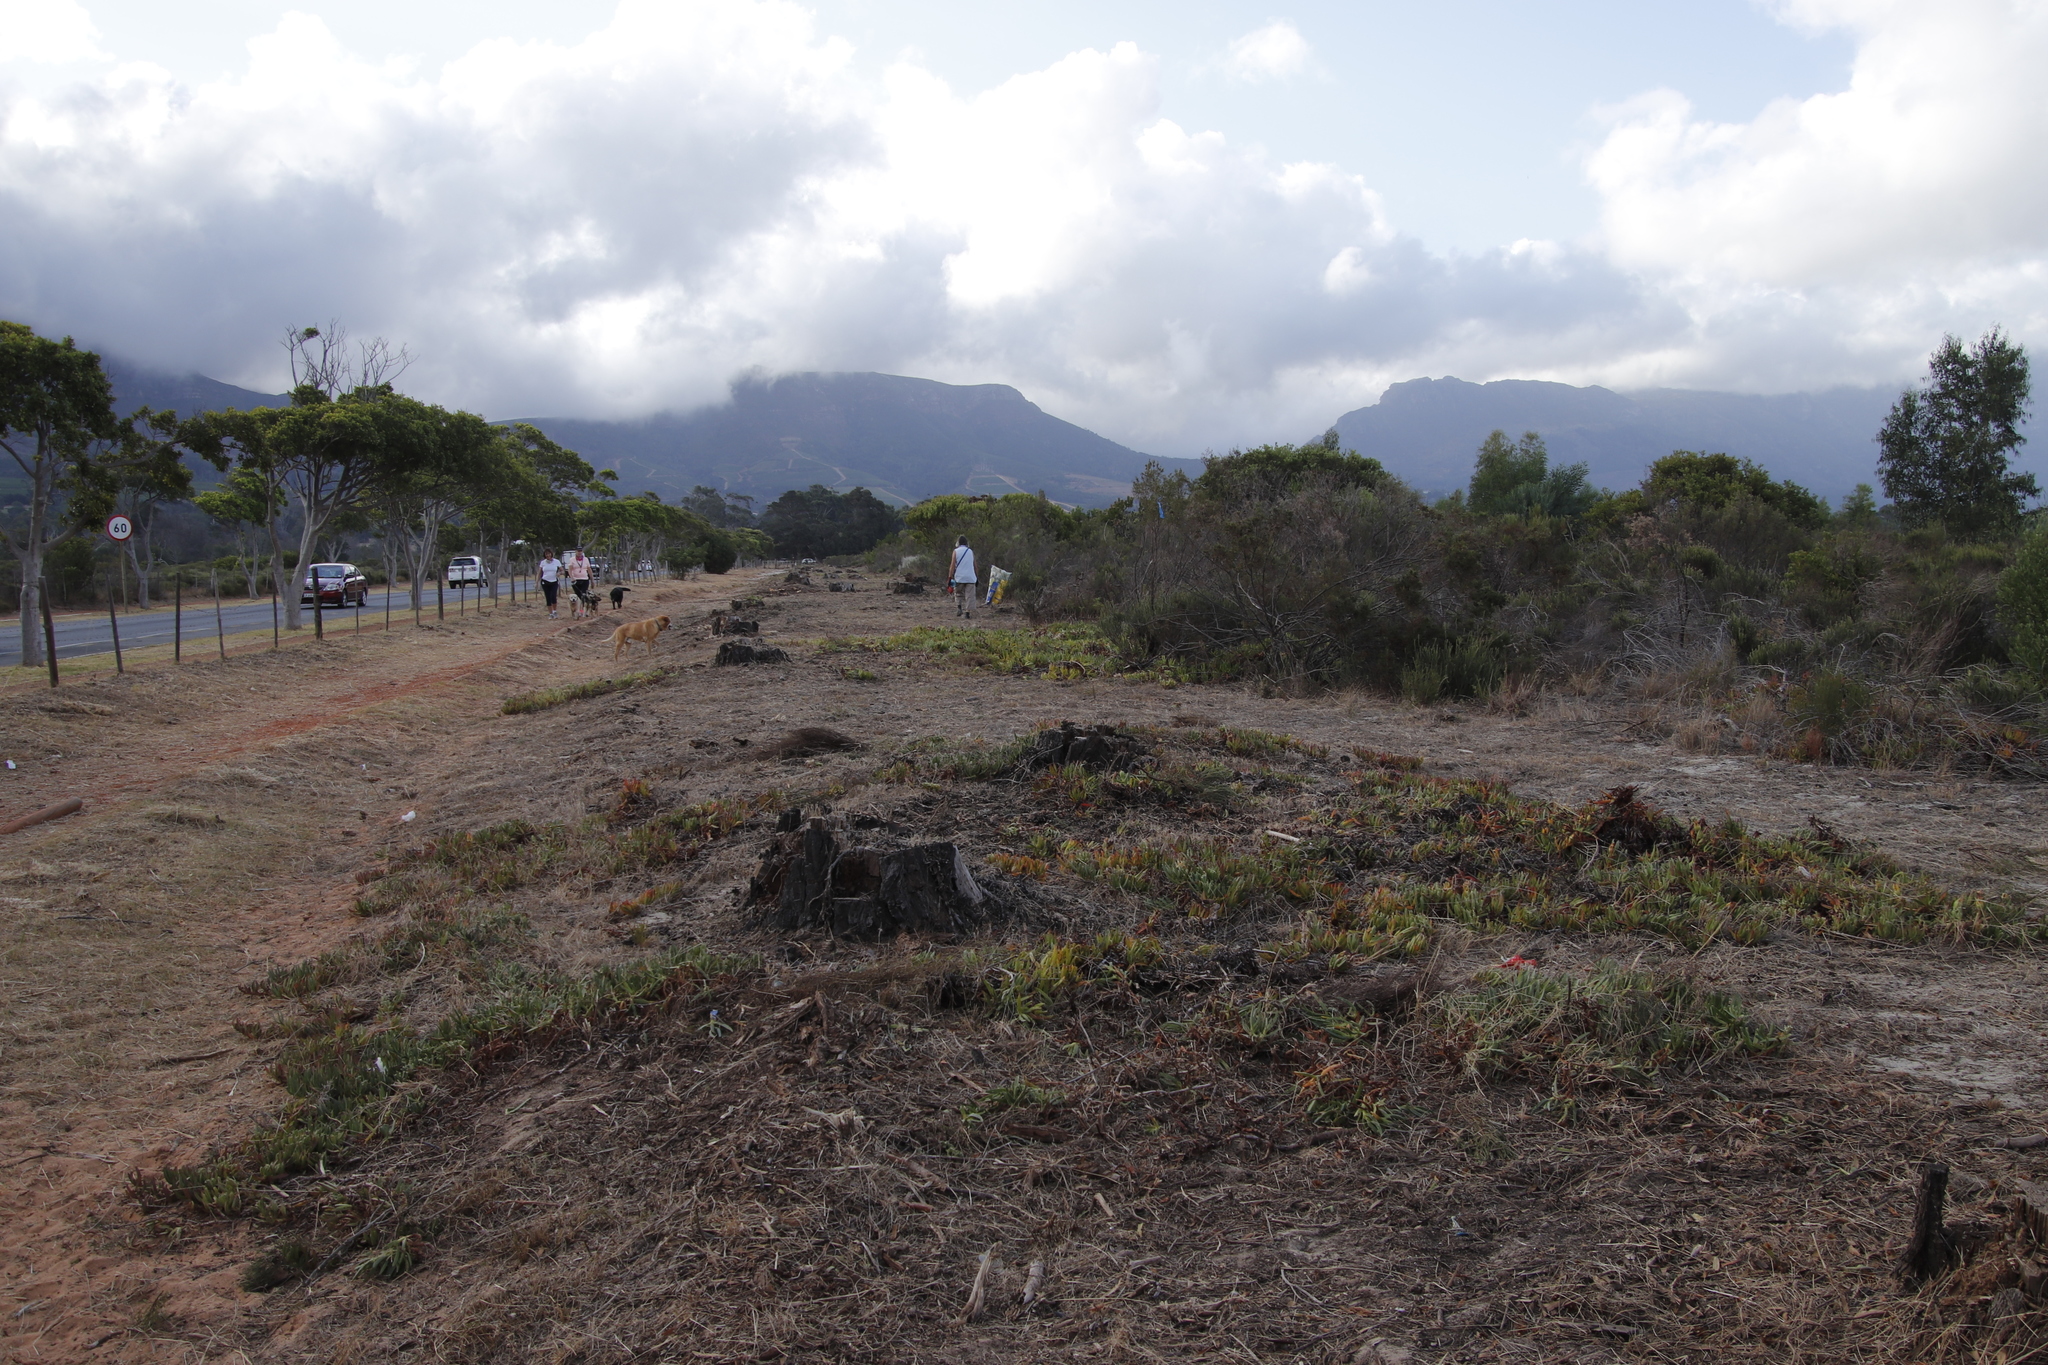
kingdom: Plantae
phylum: Tracheophyta
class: Magnoliopsida
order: Caryophyllales
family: Aizoaceae
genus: Carpobrotus
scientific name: Carpobrotus edulis
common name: Hottentot-fig
